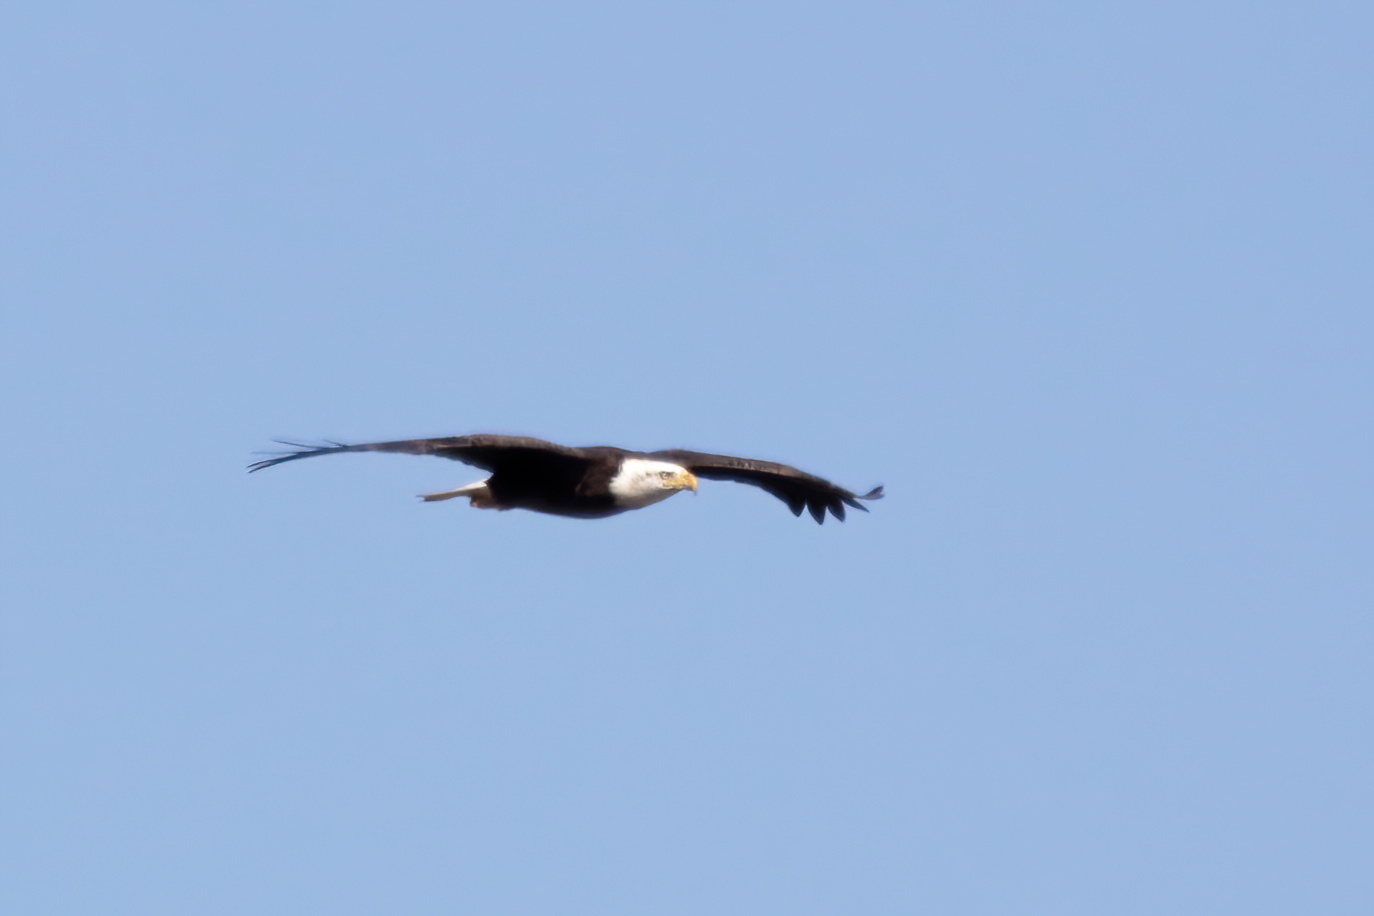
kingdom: Animalia
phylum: Chordata
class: Aves
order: Accipitriformes
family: Accipitridae
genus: Haliaeetus
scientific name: Haliaeetus leucocephalus
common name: Bald eagle
